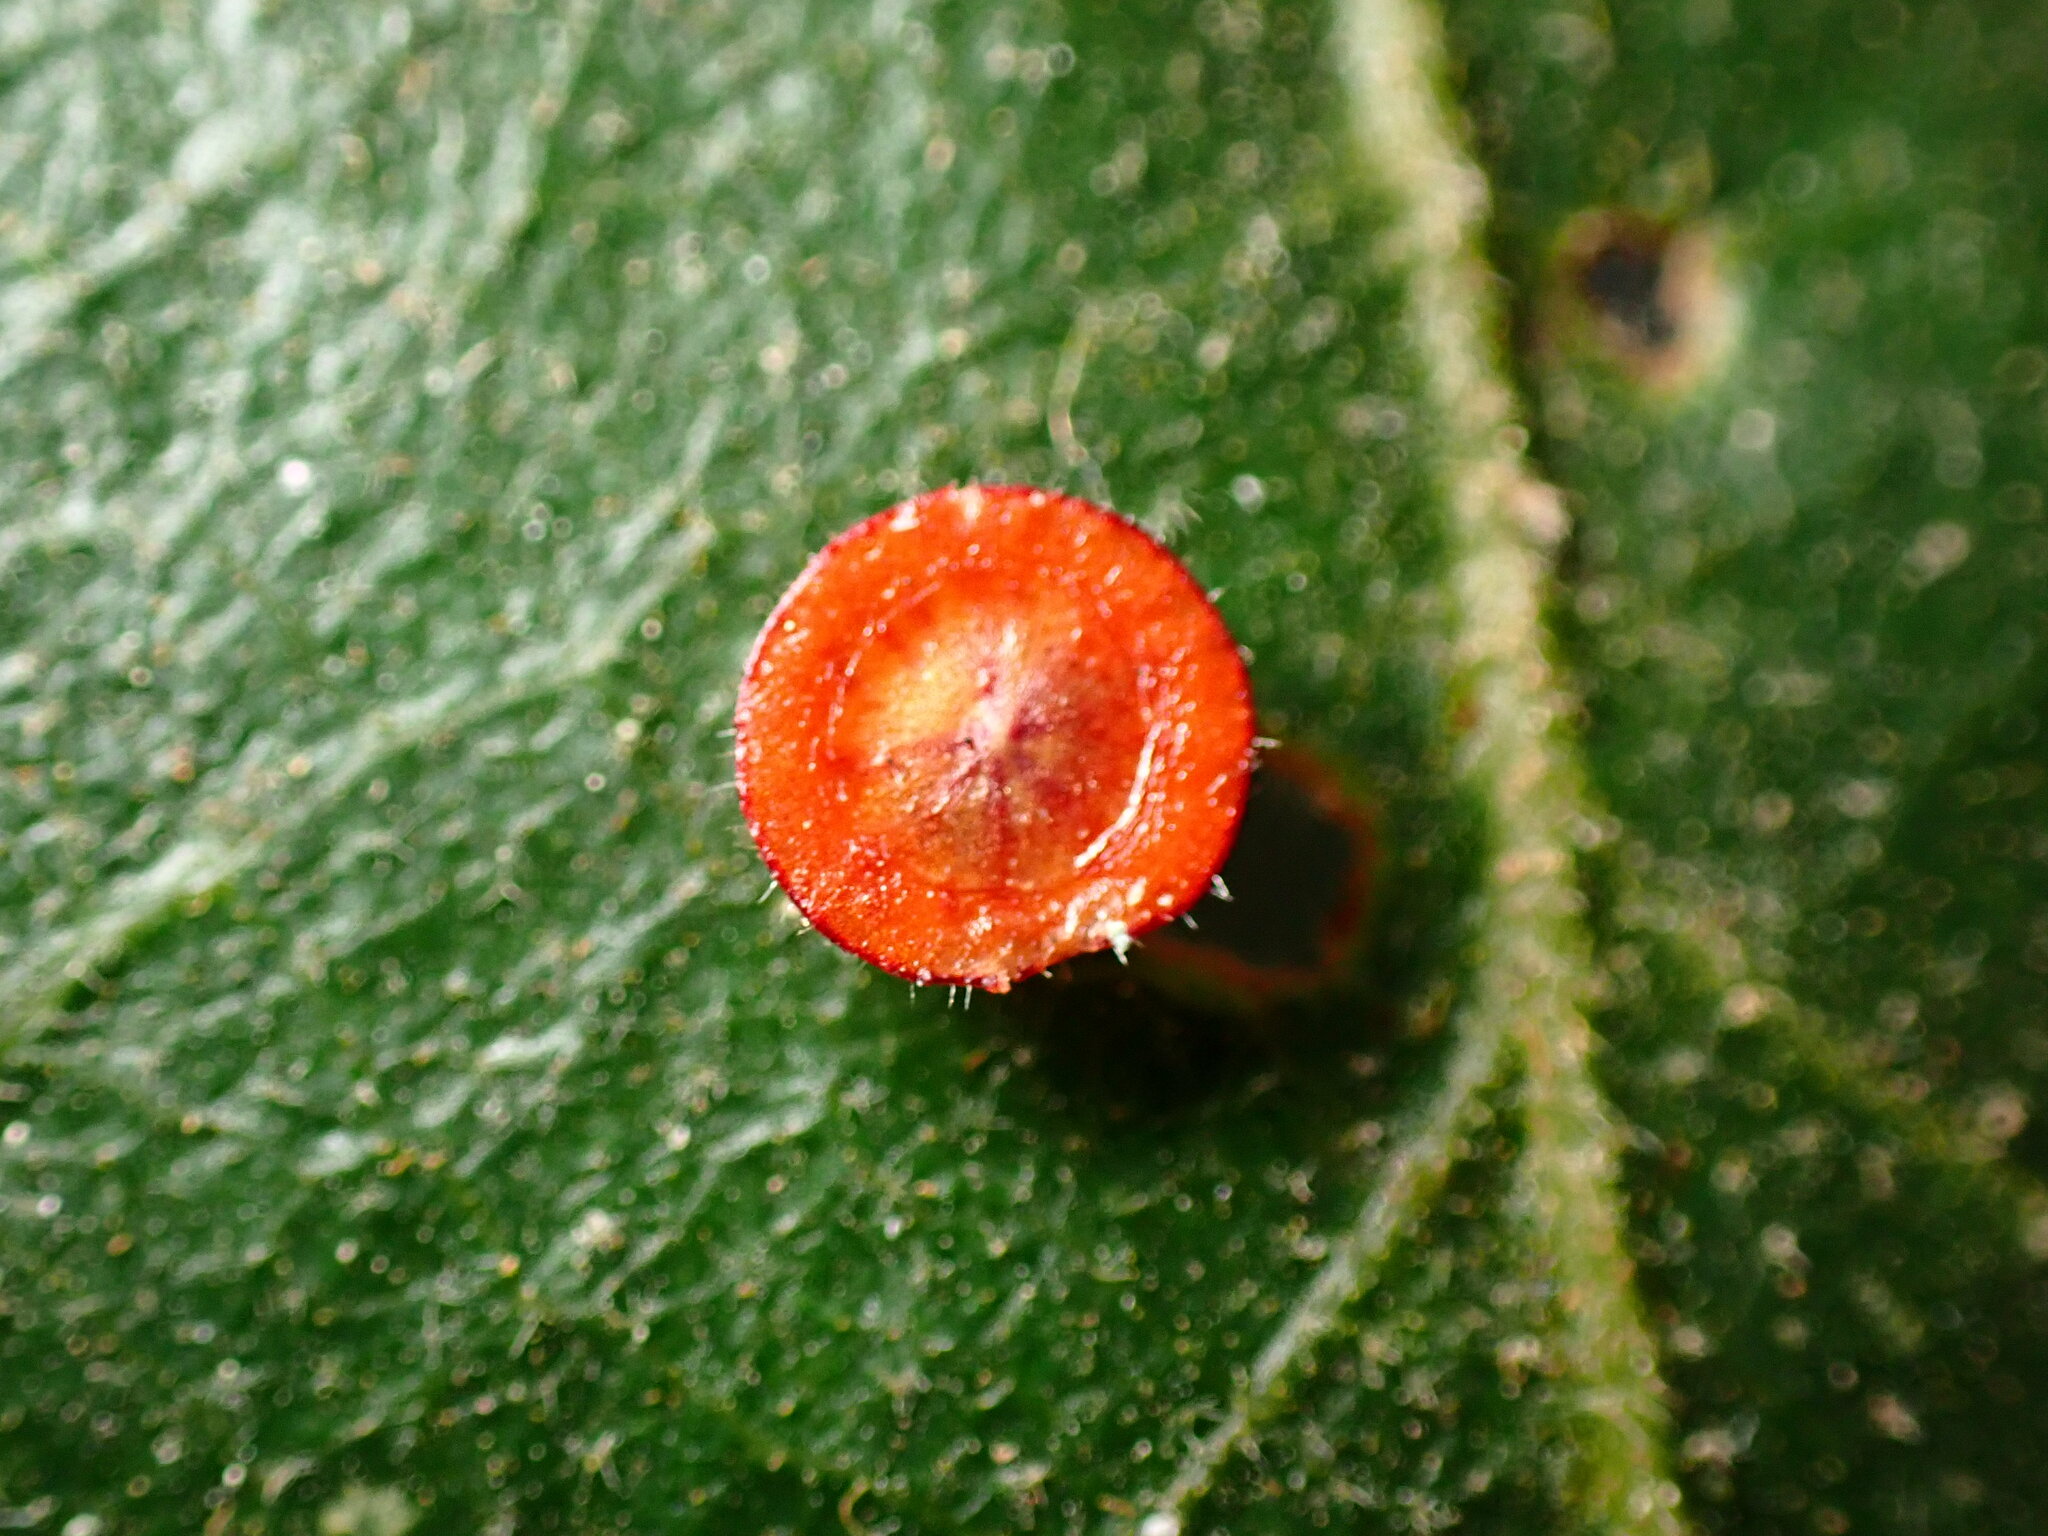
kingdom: Animalia
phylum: Arthropoda
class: Insecta
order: Hymenoptera
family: Cynipidae
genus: Andricus
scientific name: Andricus
